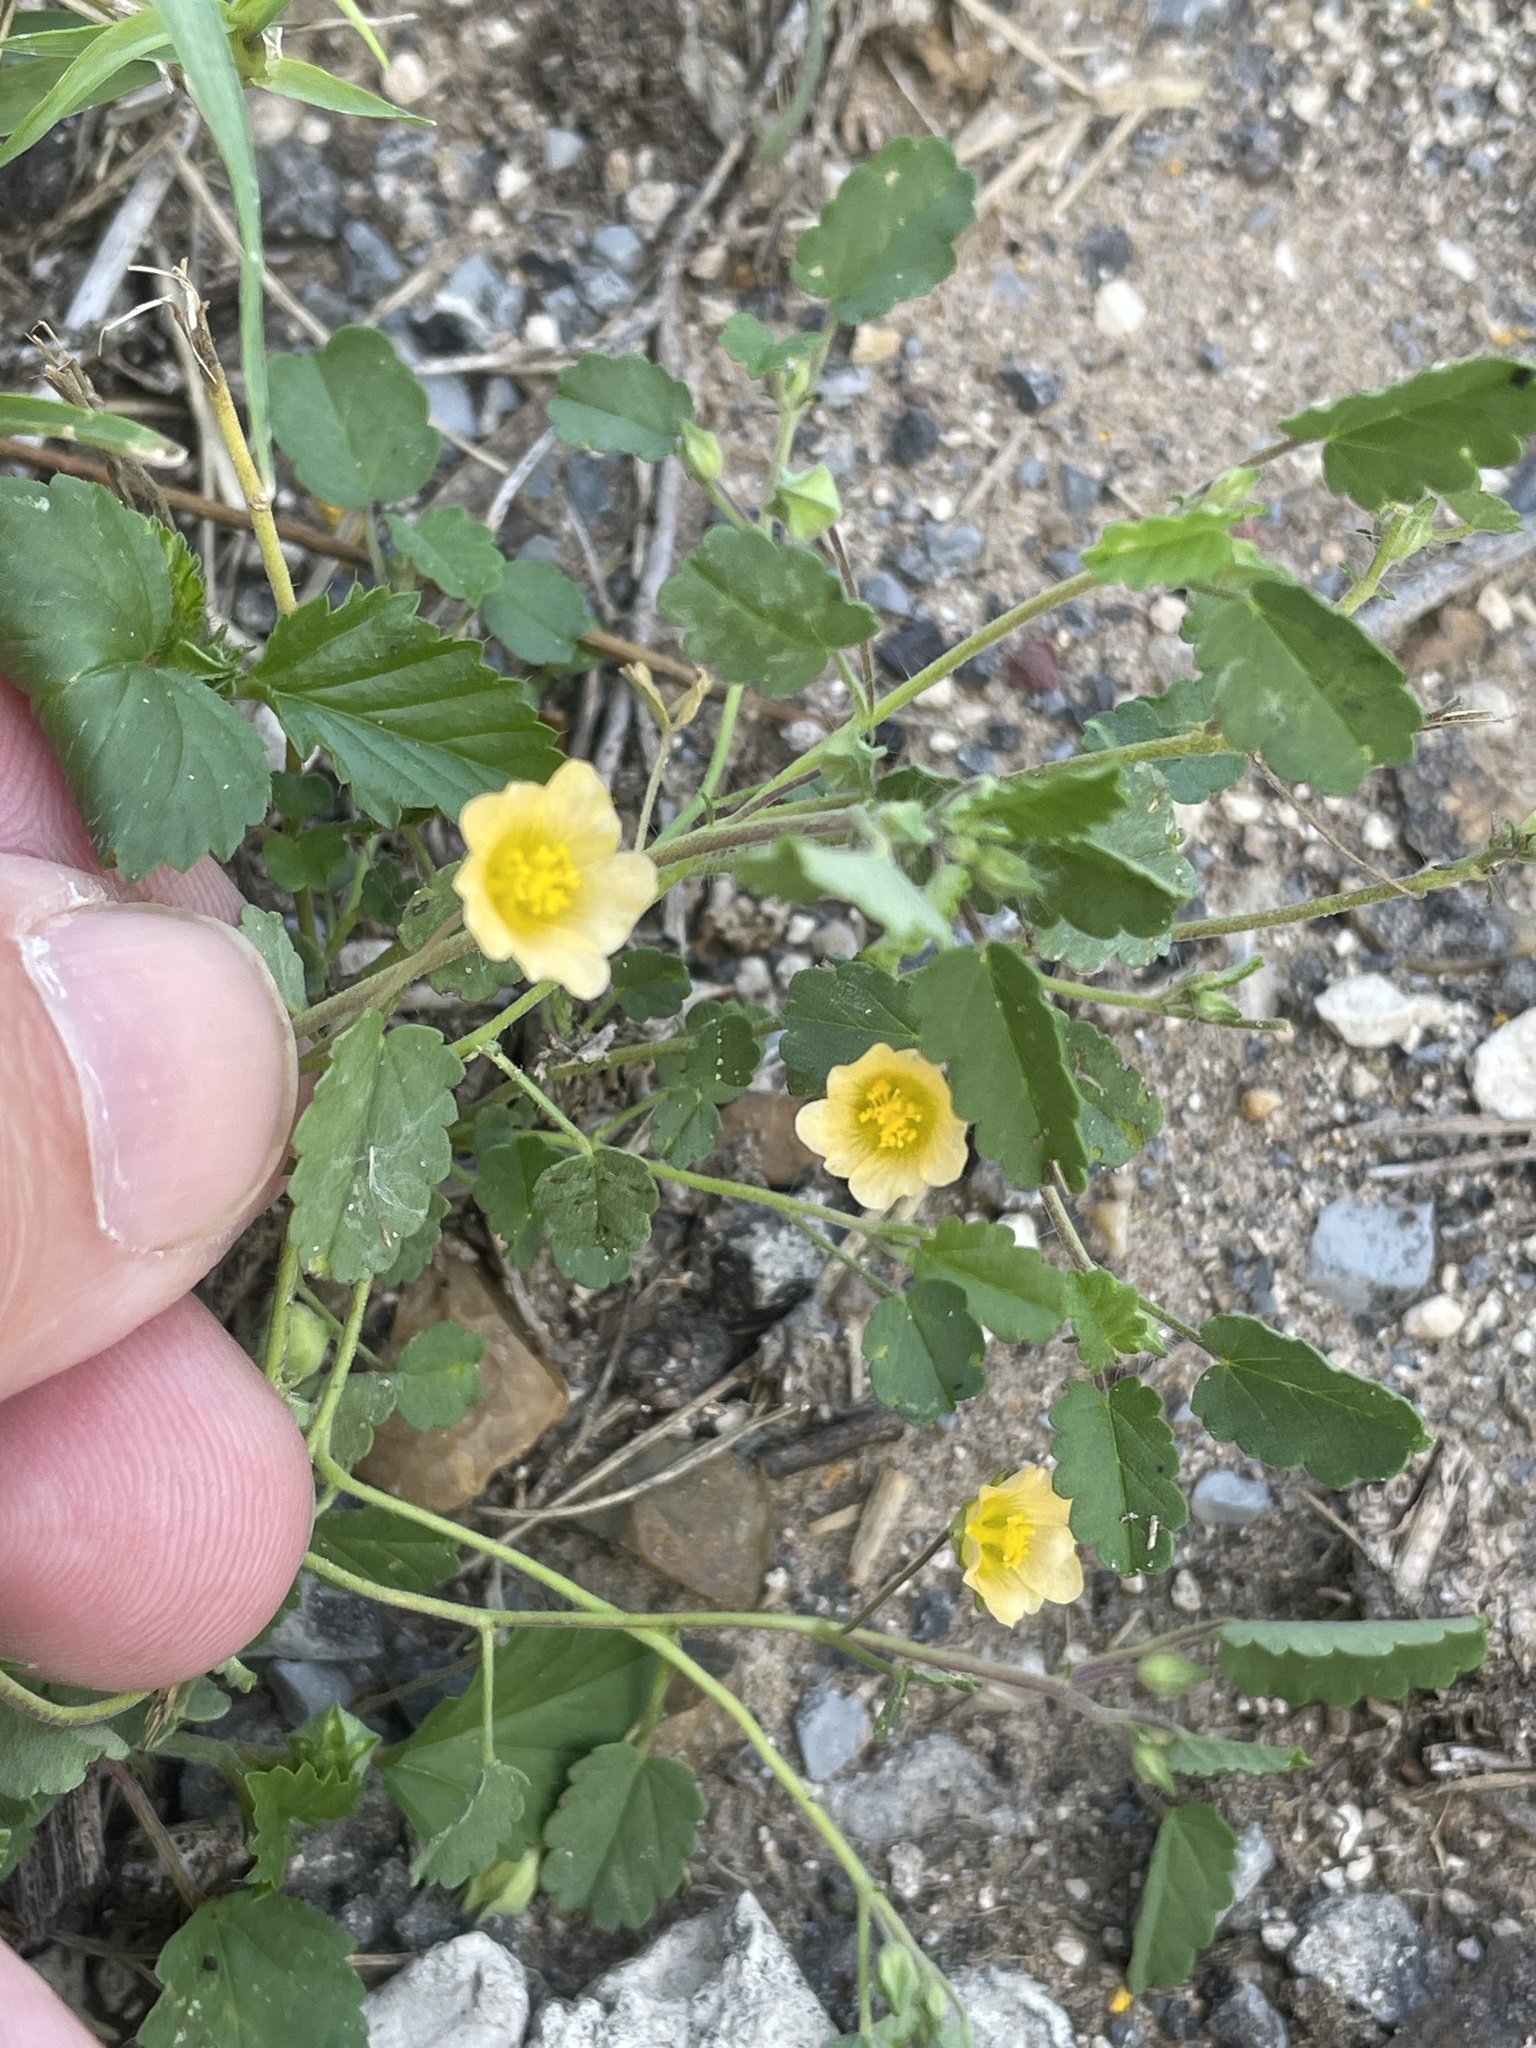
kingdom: Plantae
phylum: Tracheophyta
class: Magnoliopsida
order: Malvales
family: Malvaceae
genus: Sida
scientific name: Sida abutilifolia
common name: Spreading fanpetals
